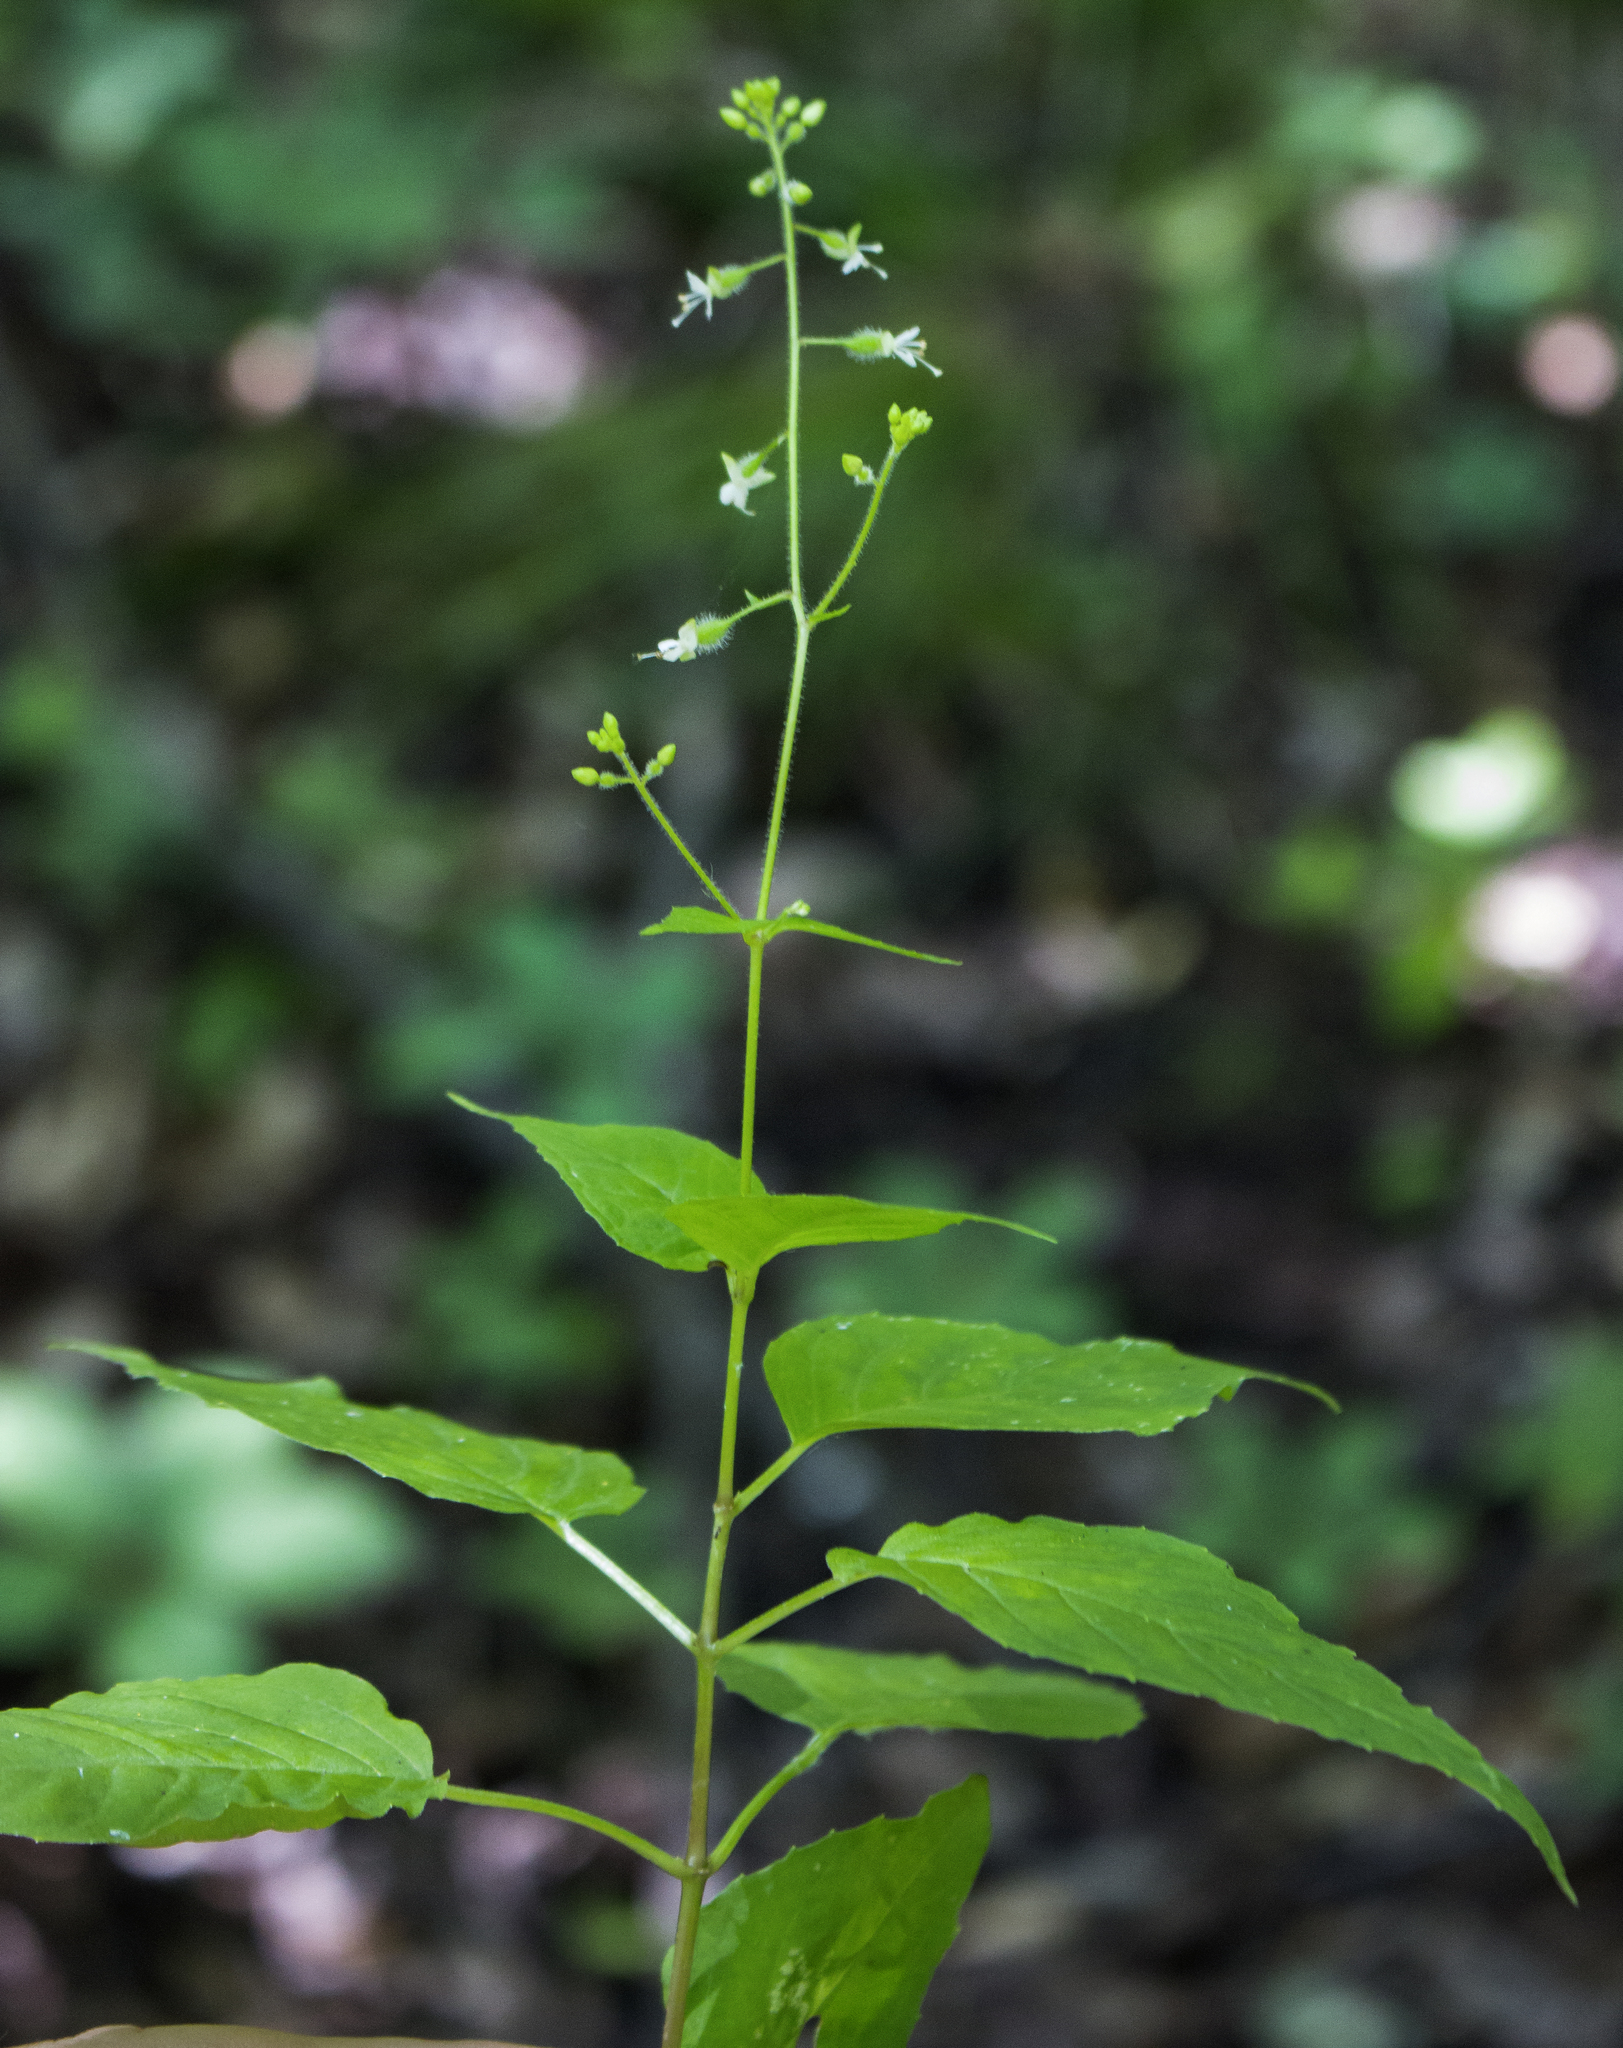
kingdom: Plantae
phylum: Tracheophyta
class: Magnoliopsida
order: Myrtales
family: Onagraceae
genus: Circaea
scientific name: Circaea canadensis
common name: Broad-leaved enchanter's nightshade
